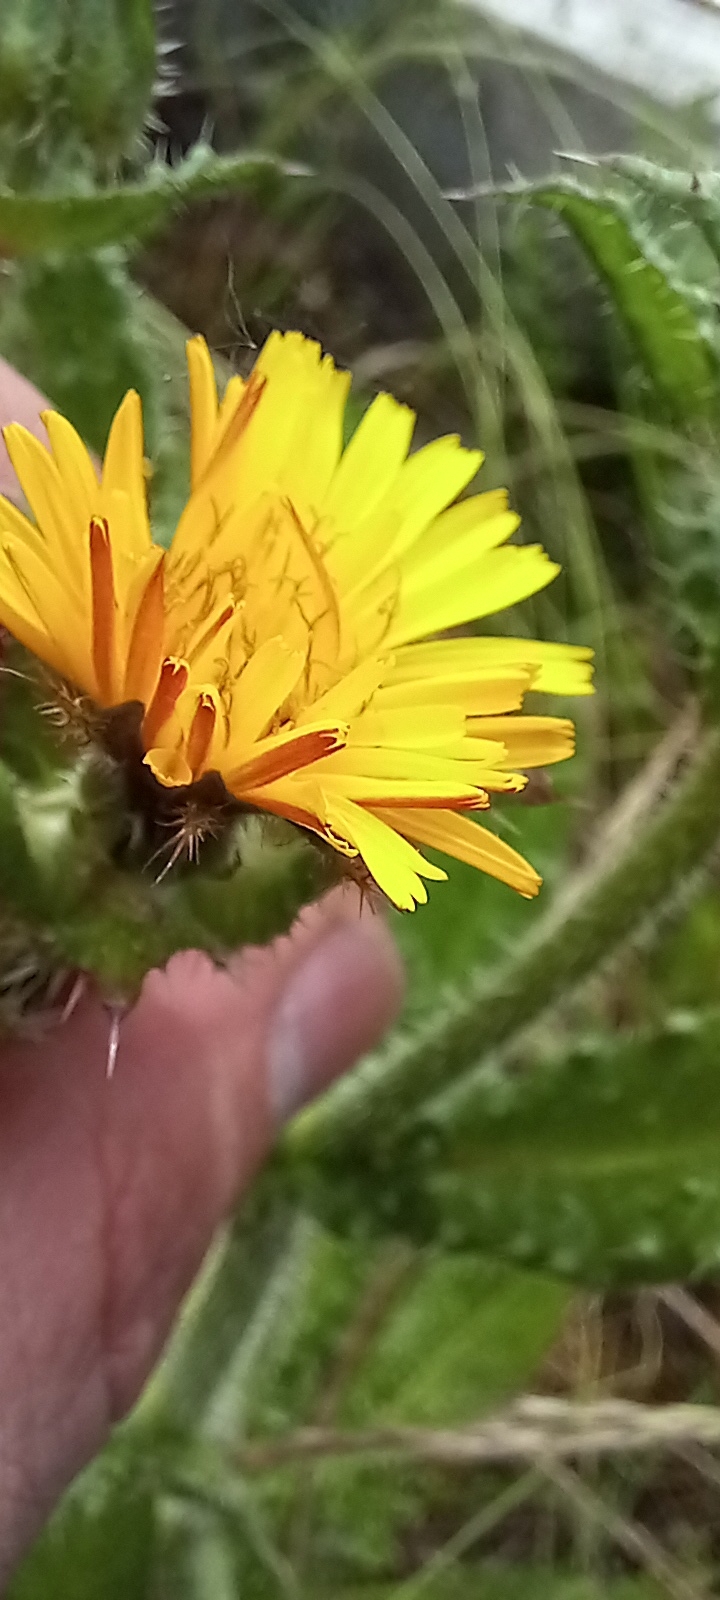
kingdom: Plantae
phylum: Tracheophyta
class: Magnoliopsida
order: Asterales
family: Asteraceae
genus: Helminthotheca
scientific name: Helminthotheca echioides
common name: Ox-tongue
